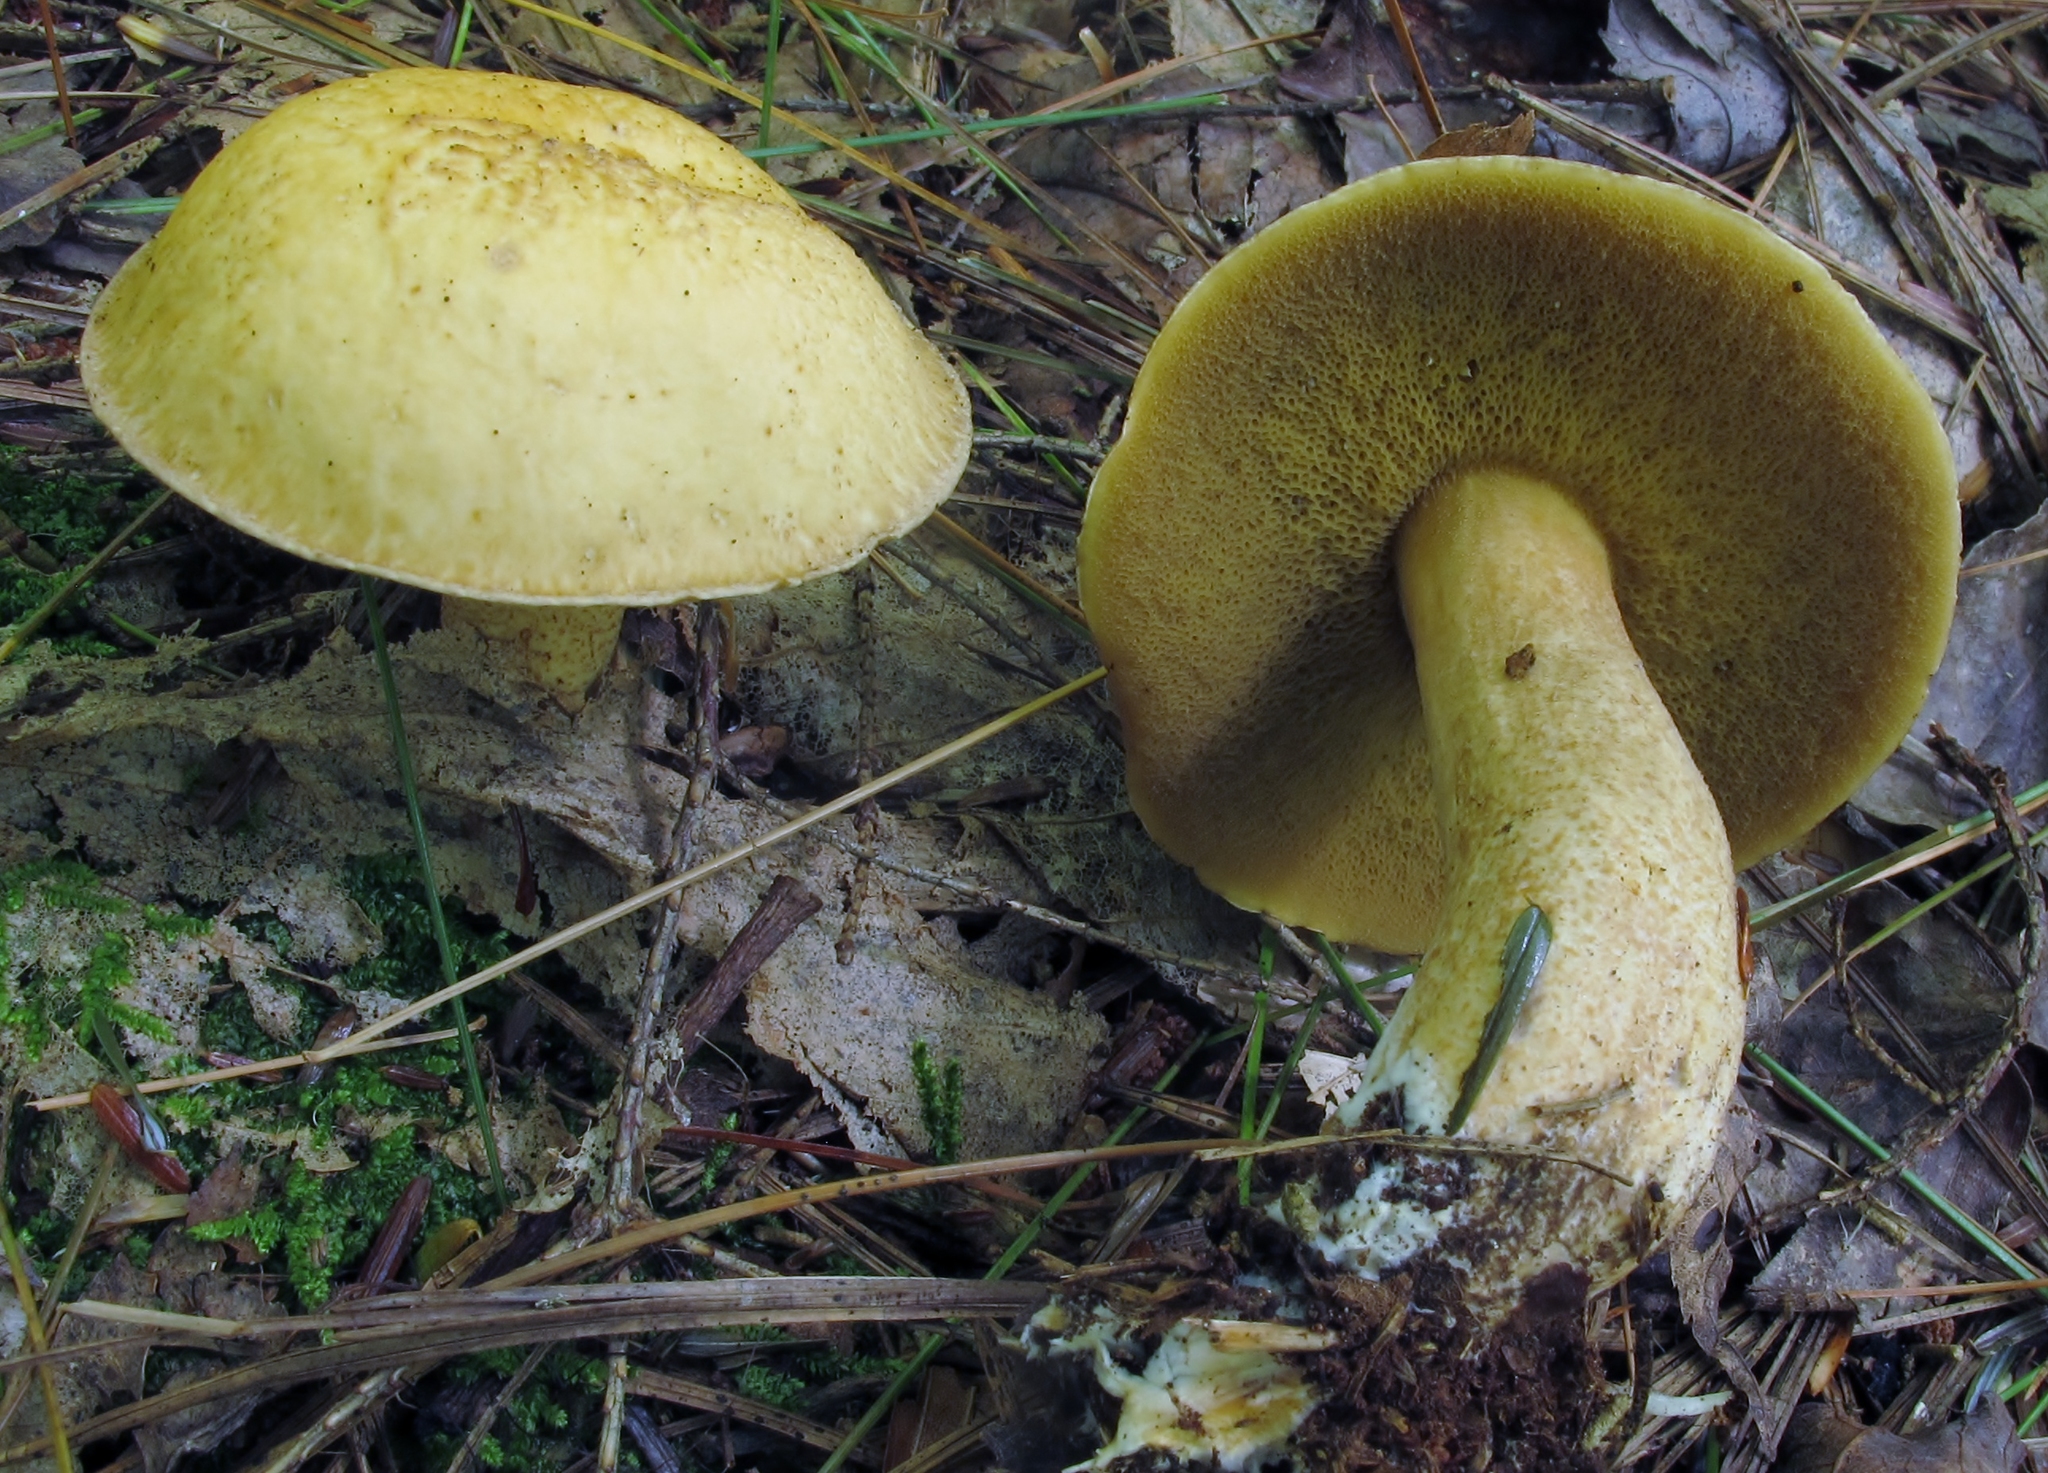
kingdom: Fungi
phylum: Basidiomycota
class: Agaricomycetes
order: Boletales
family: Suillaceae
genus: Suillus
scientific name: Suillus punctipes
